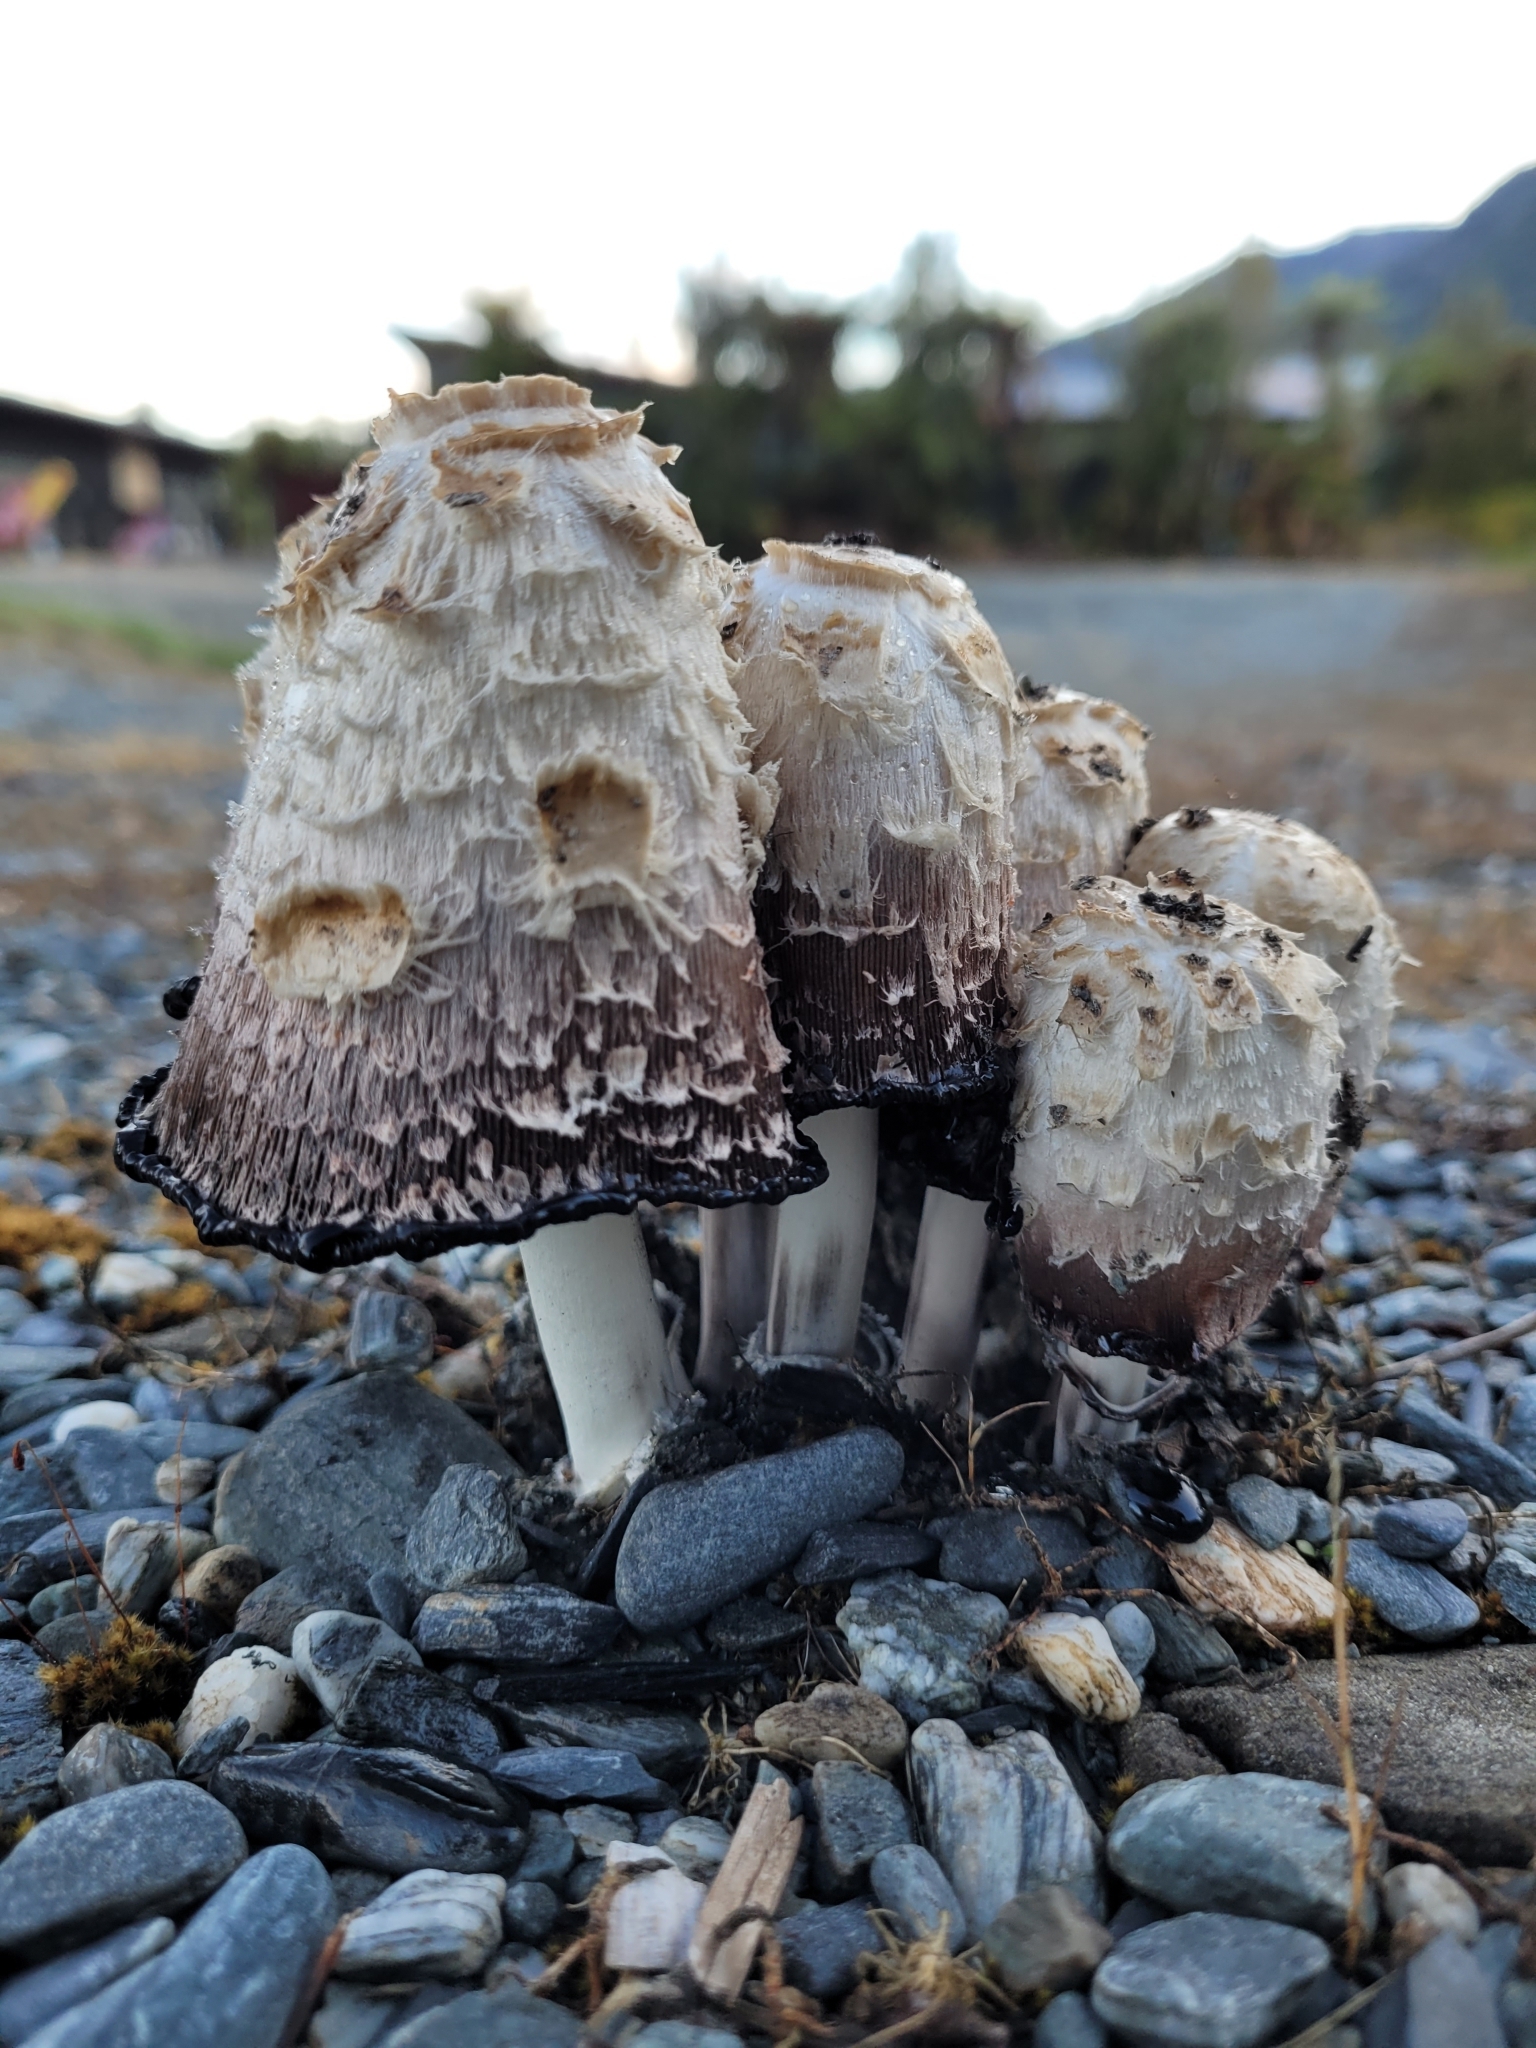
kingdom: Fungi
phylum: Basidiomycota
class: Agaricomycetes
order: Agaricales
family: Agaricaceae
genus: Coprinus
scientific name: Coprinus comatus
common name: Lawyer's wig
